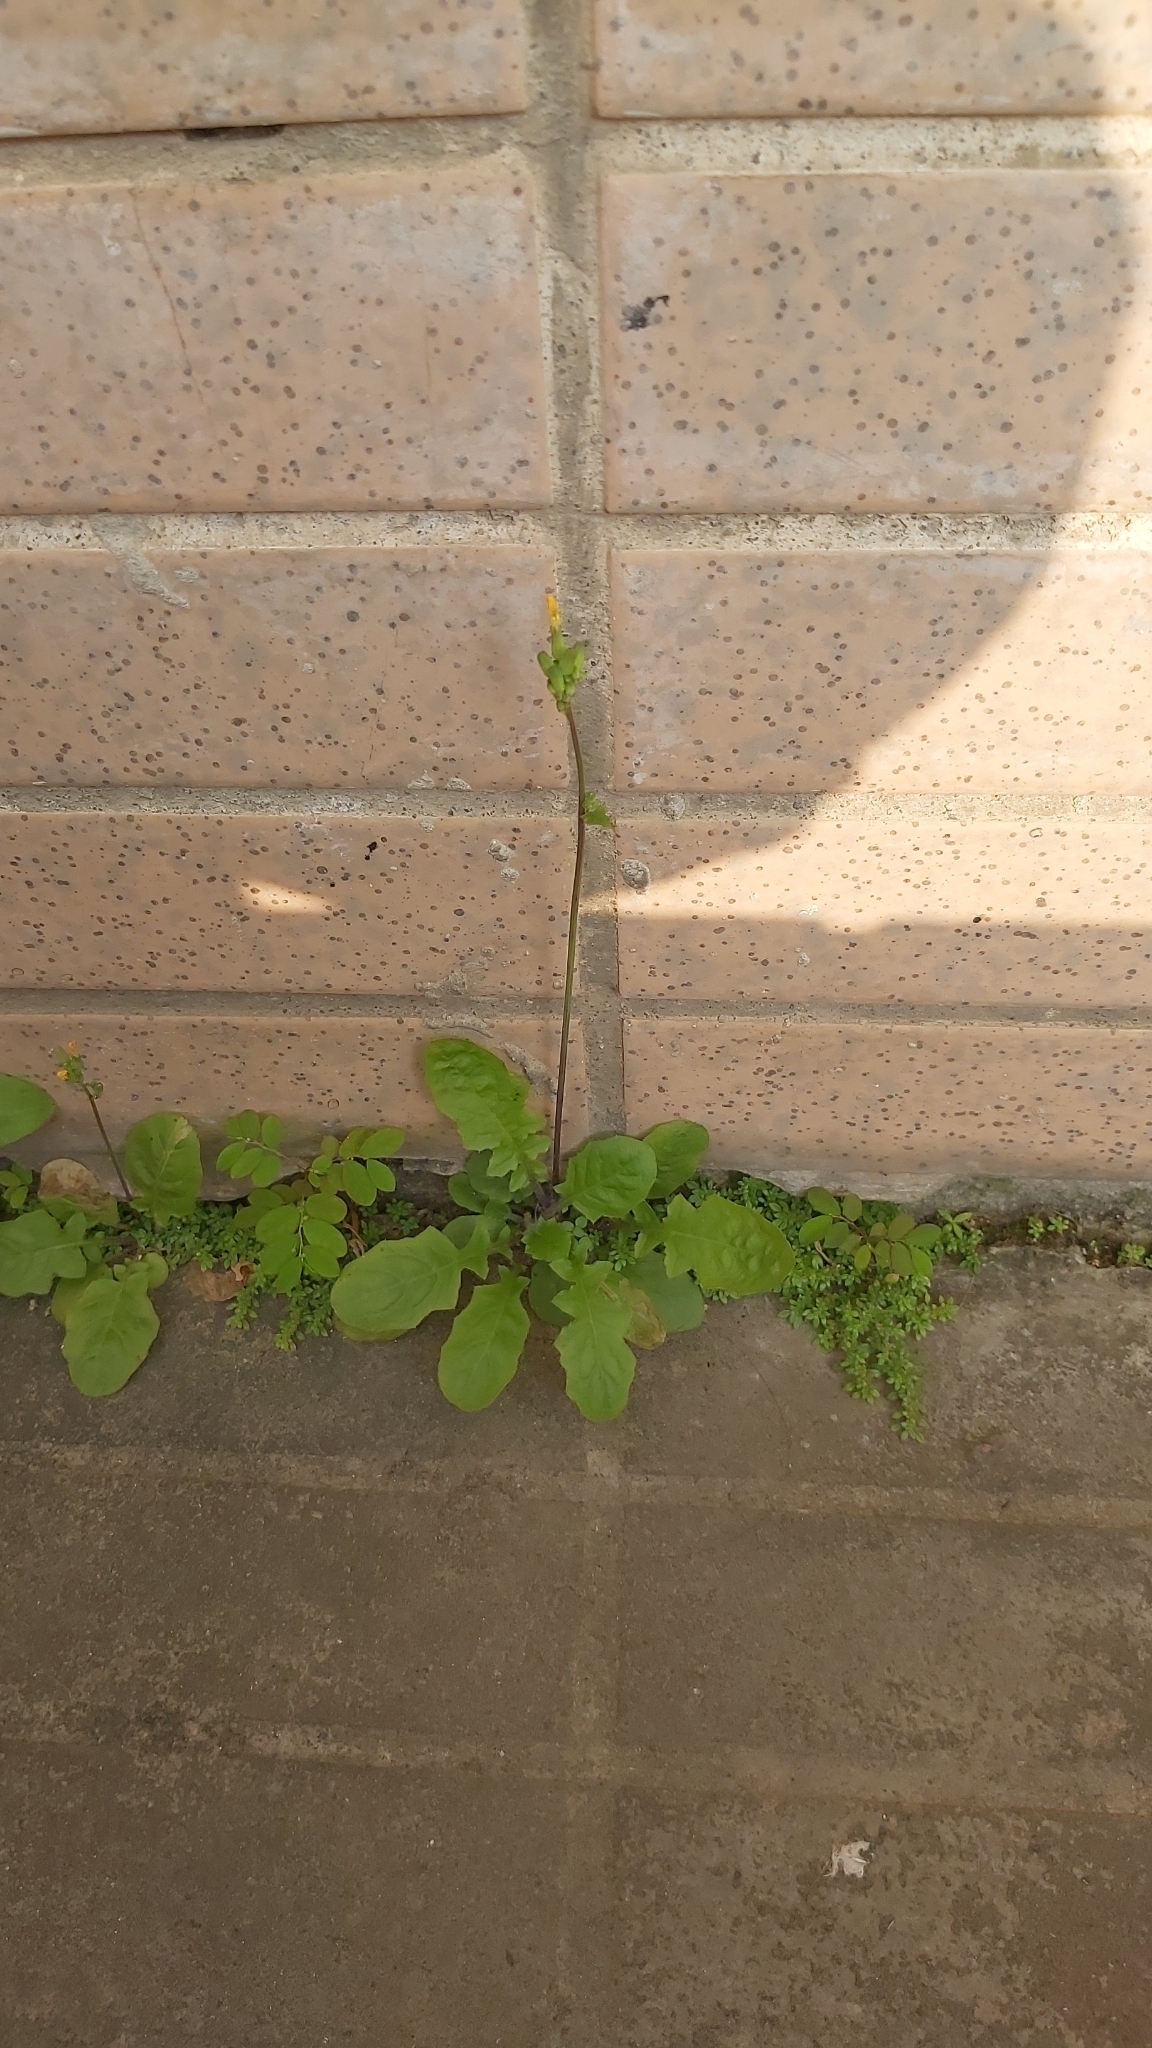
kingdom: Plantae
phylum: Tracheophyta
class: Magnoliopsida
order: Asterales
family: Asteraceae
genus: Youngia
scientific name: Youngia japonica
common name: Oriental false hawksbeard
